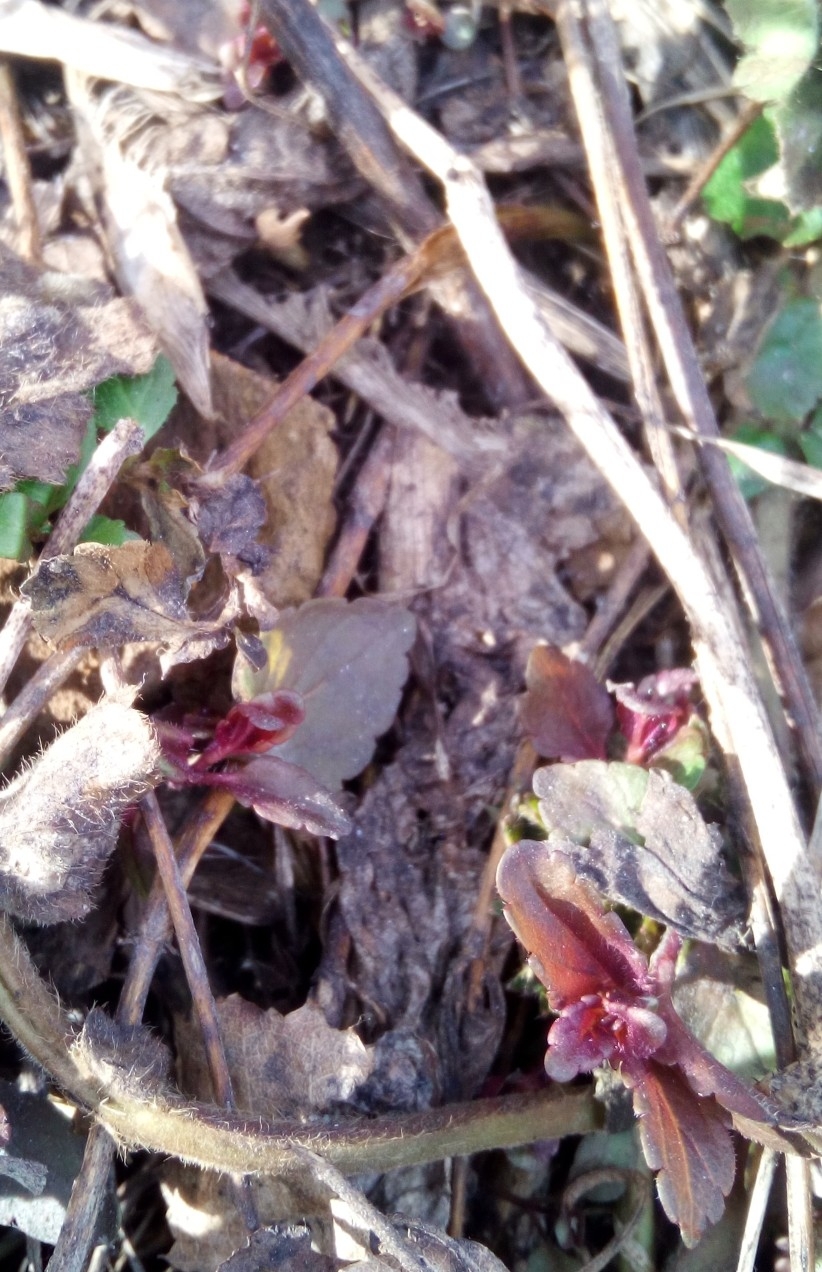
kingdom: Plantae
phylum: Tracheophyta
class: Magnoliopsida
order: Lamiales
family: Plantaginaceae
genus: Veronica
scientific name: Veronica chamaedrys
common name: Germander speedwell
